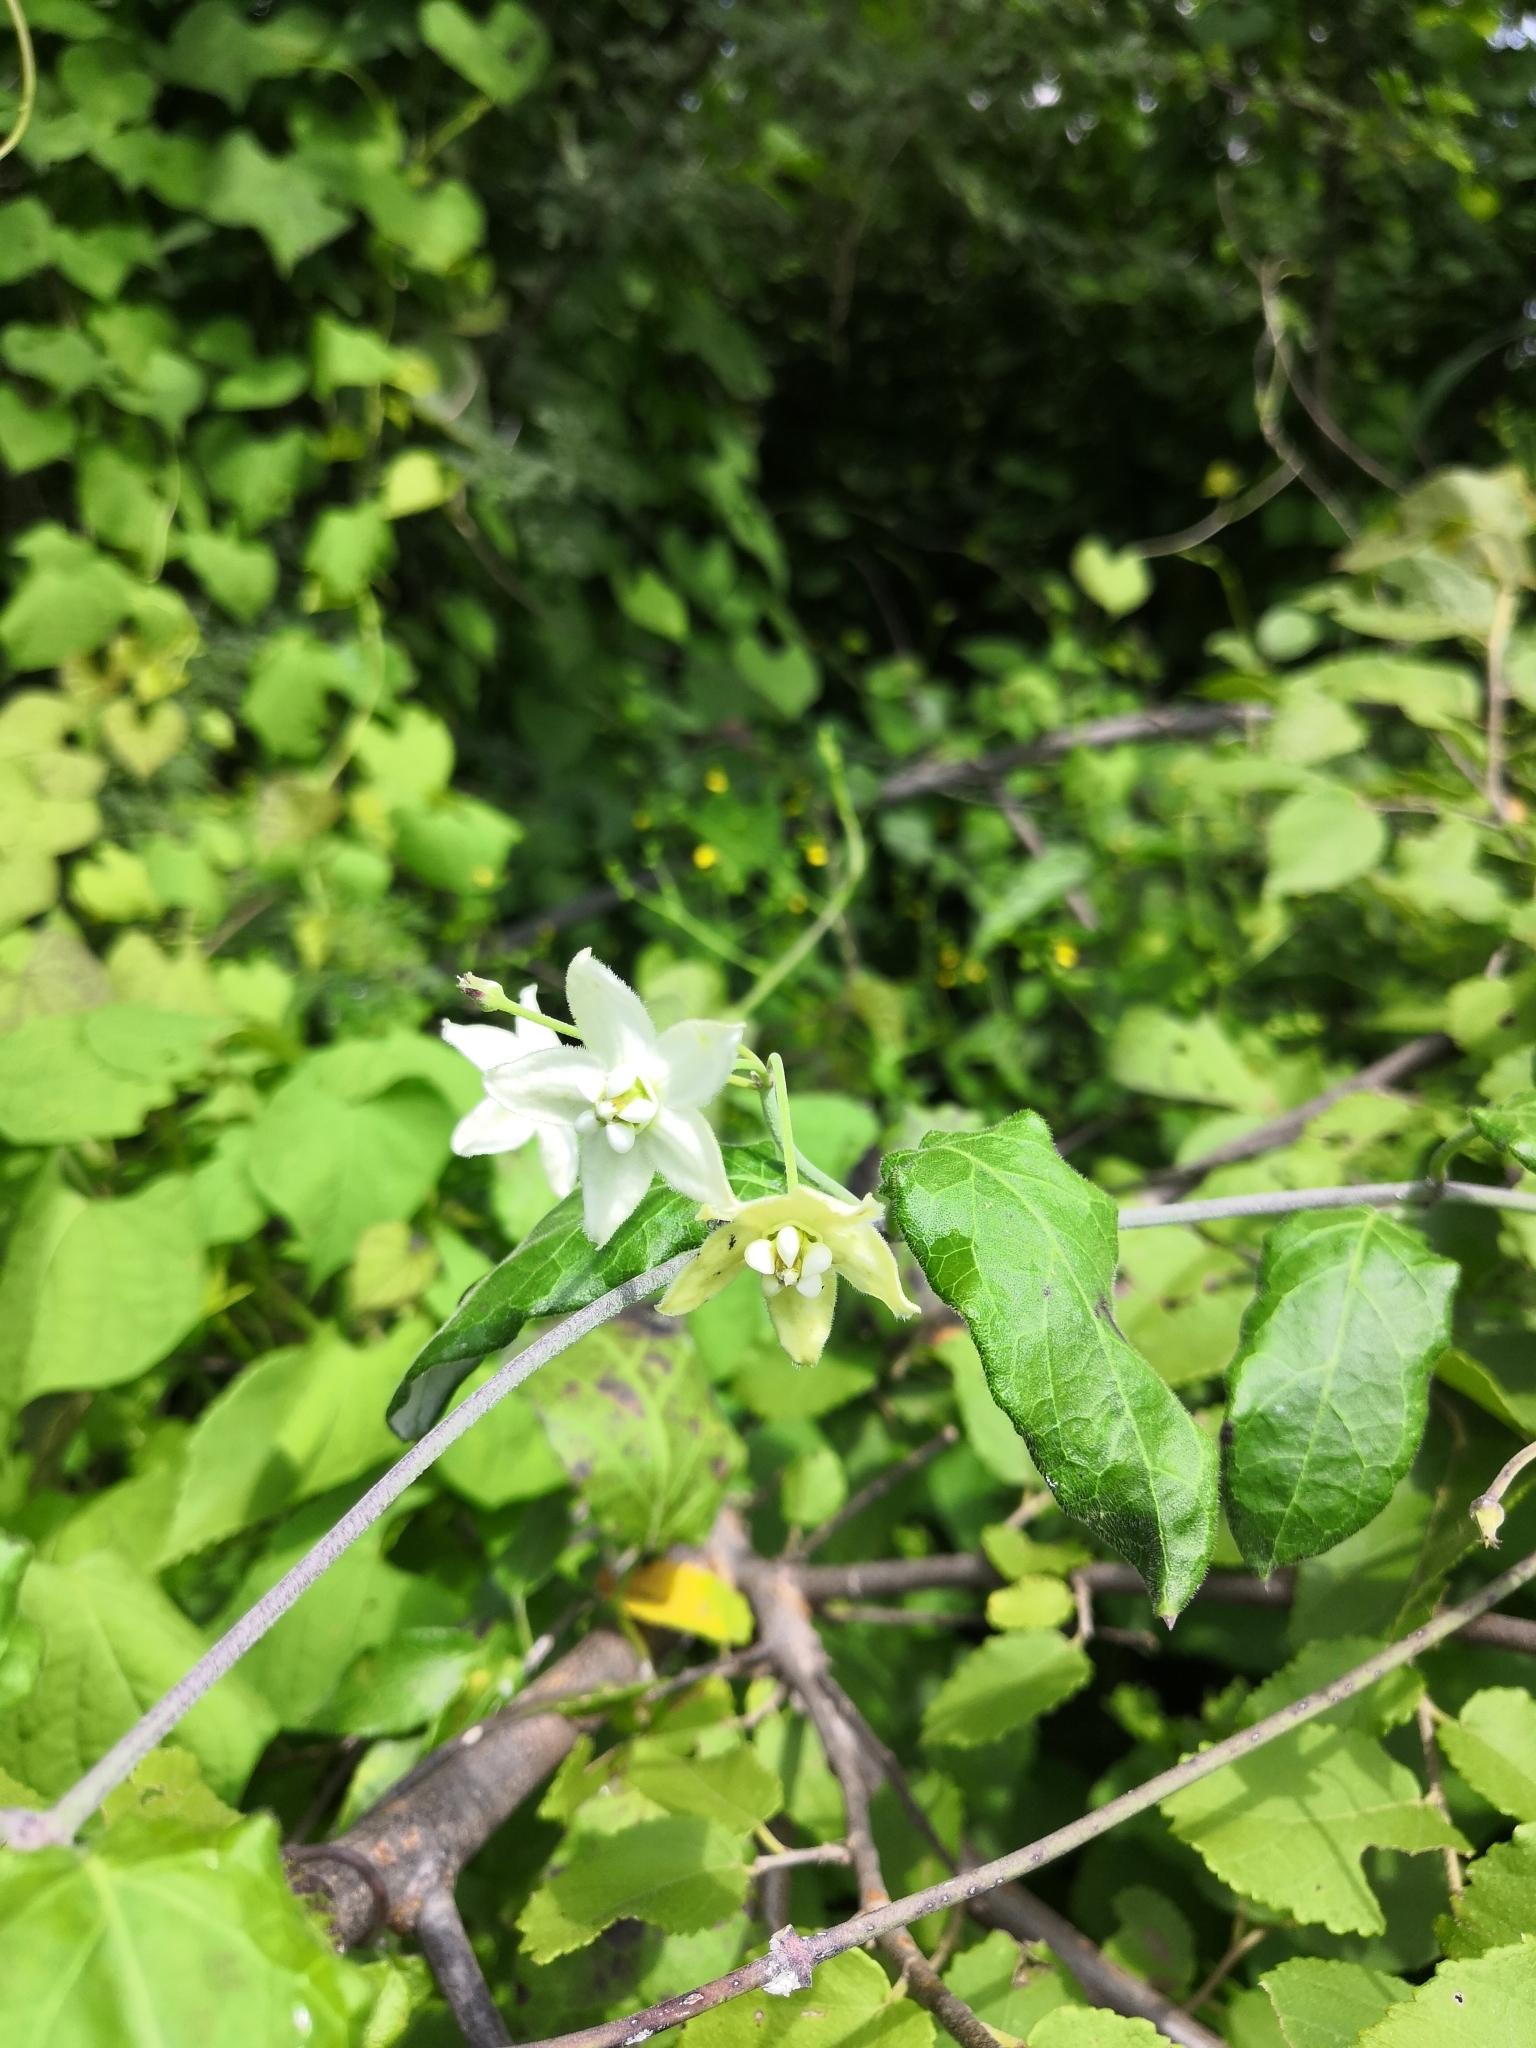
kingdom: Plantae
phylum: Tracheophyta
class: Magnoliopsida
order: Gentianales
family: Apocynaceae
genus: Funastrum
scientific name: Funastrum pannosum
